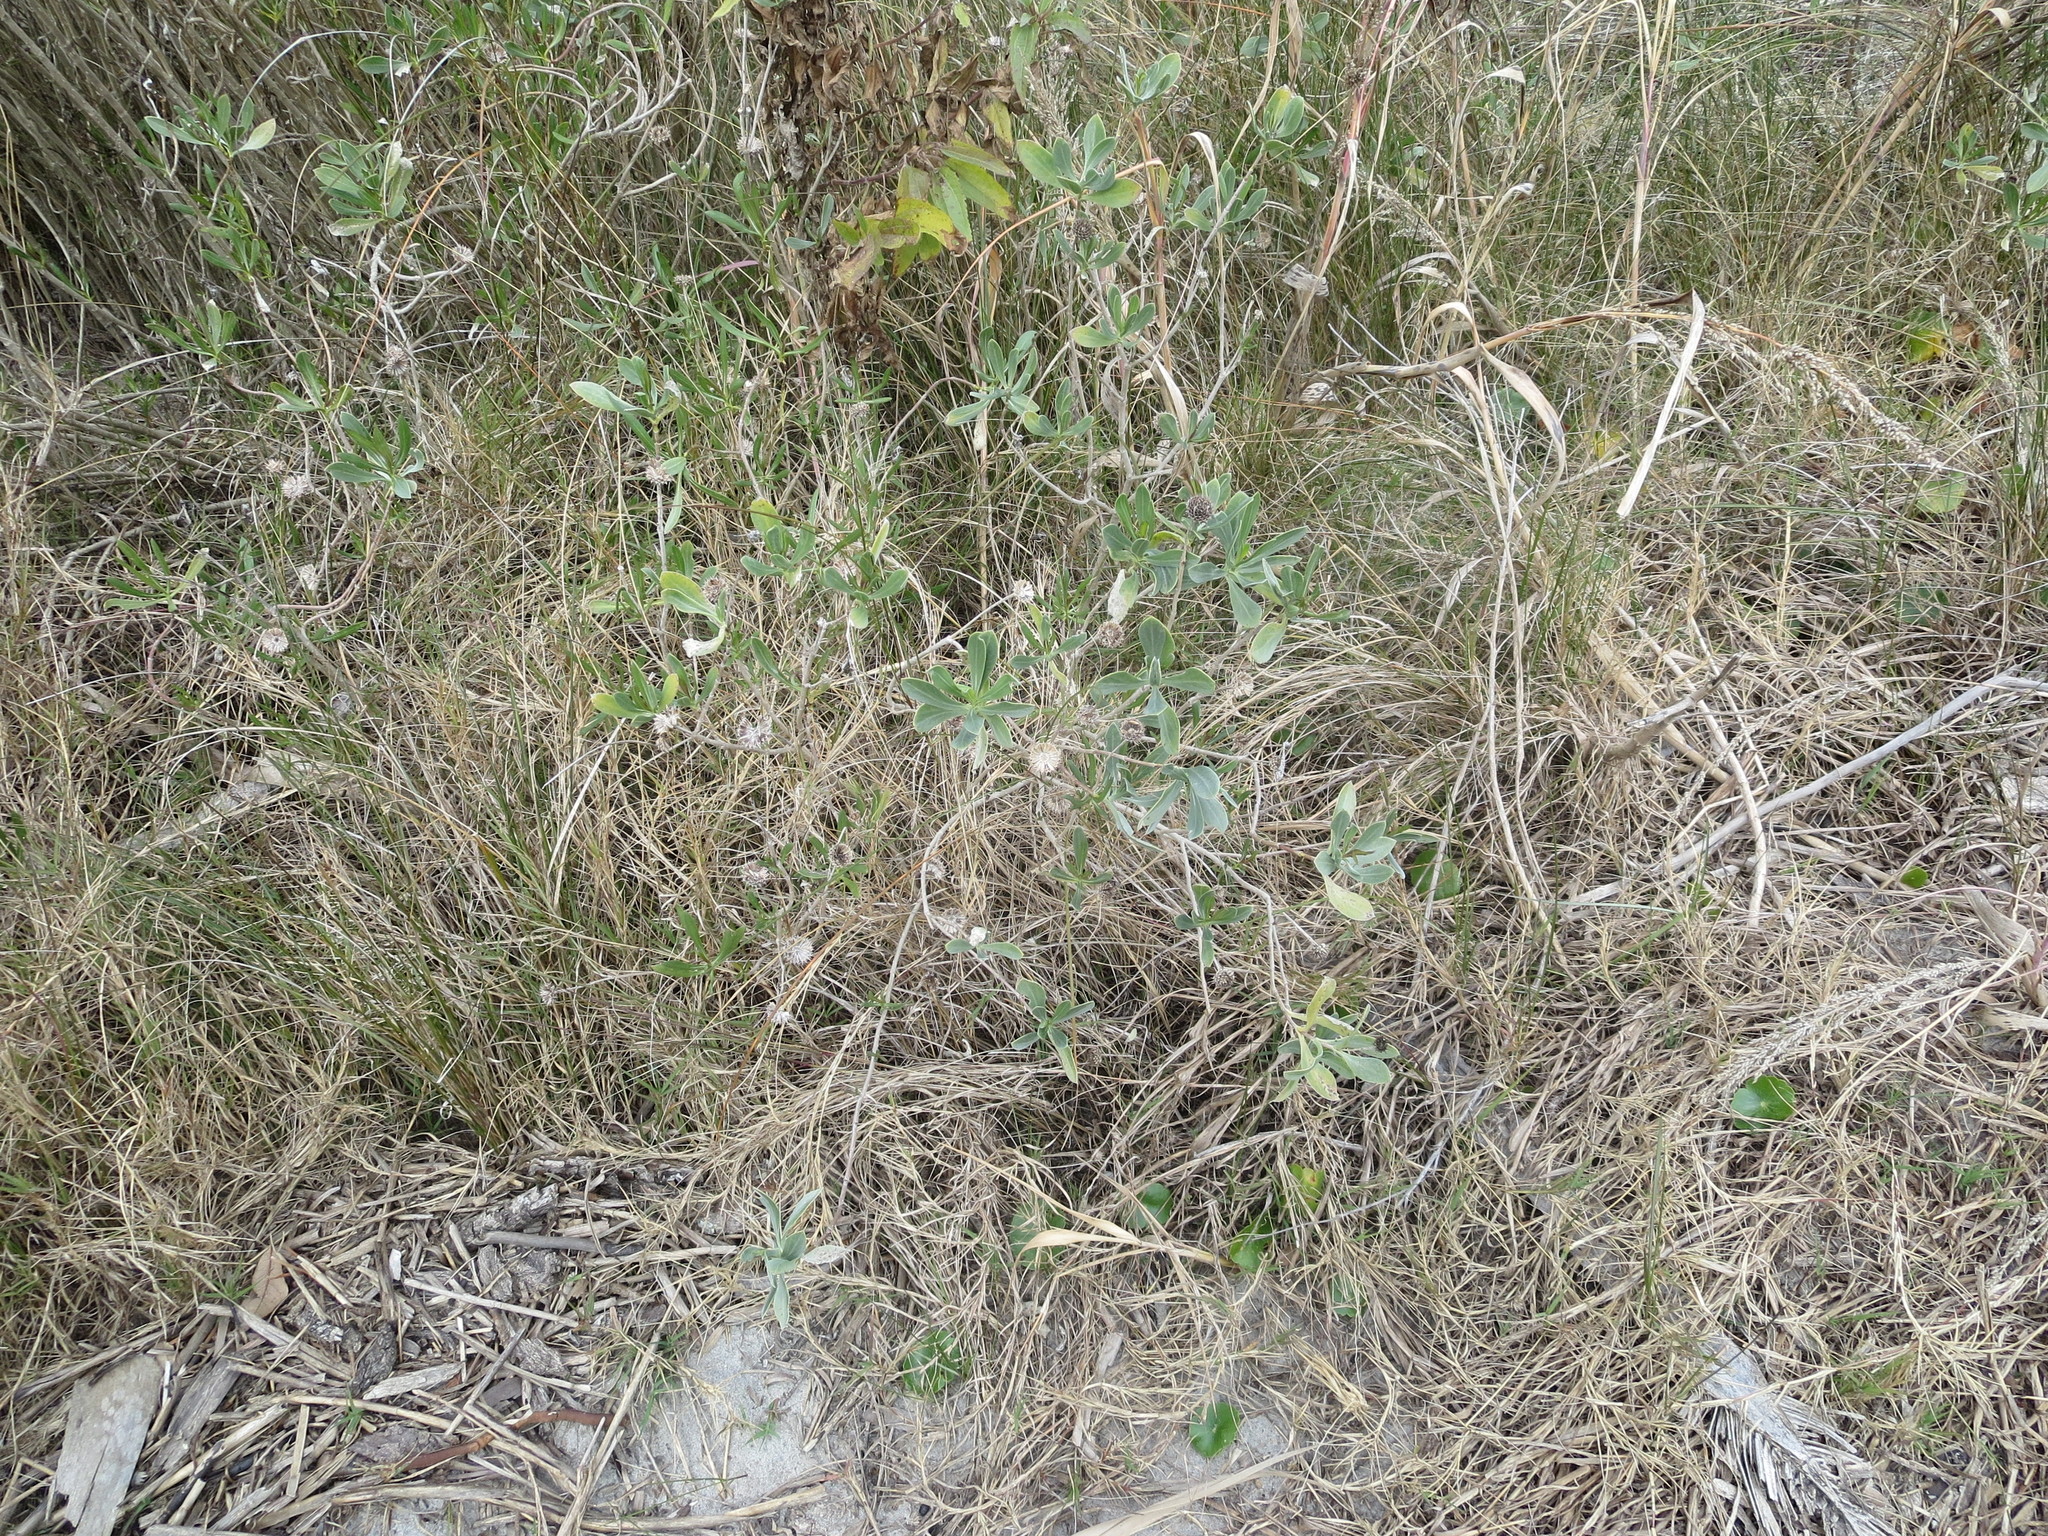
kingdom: Plantae
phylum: Tracheophyta
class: Magnoliopsida
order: Asterales
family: Asteraceae
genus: Borrichia
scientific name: Borrichia frutescens
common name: Sea oxeye
